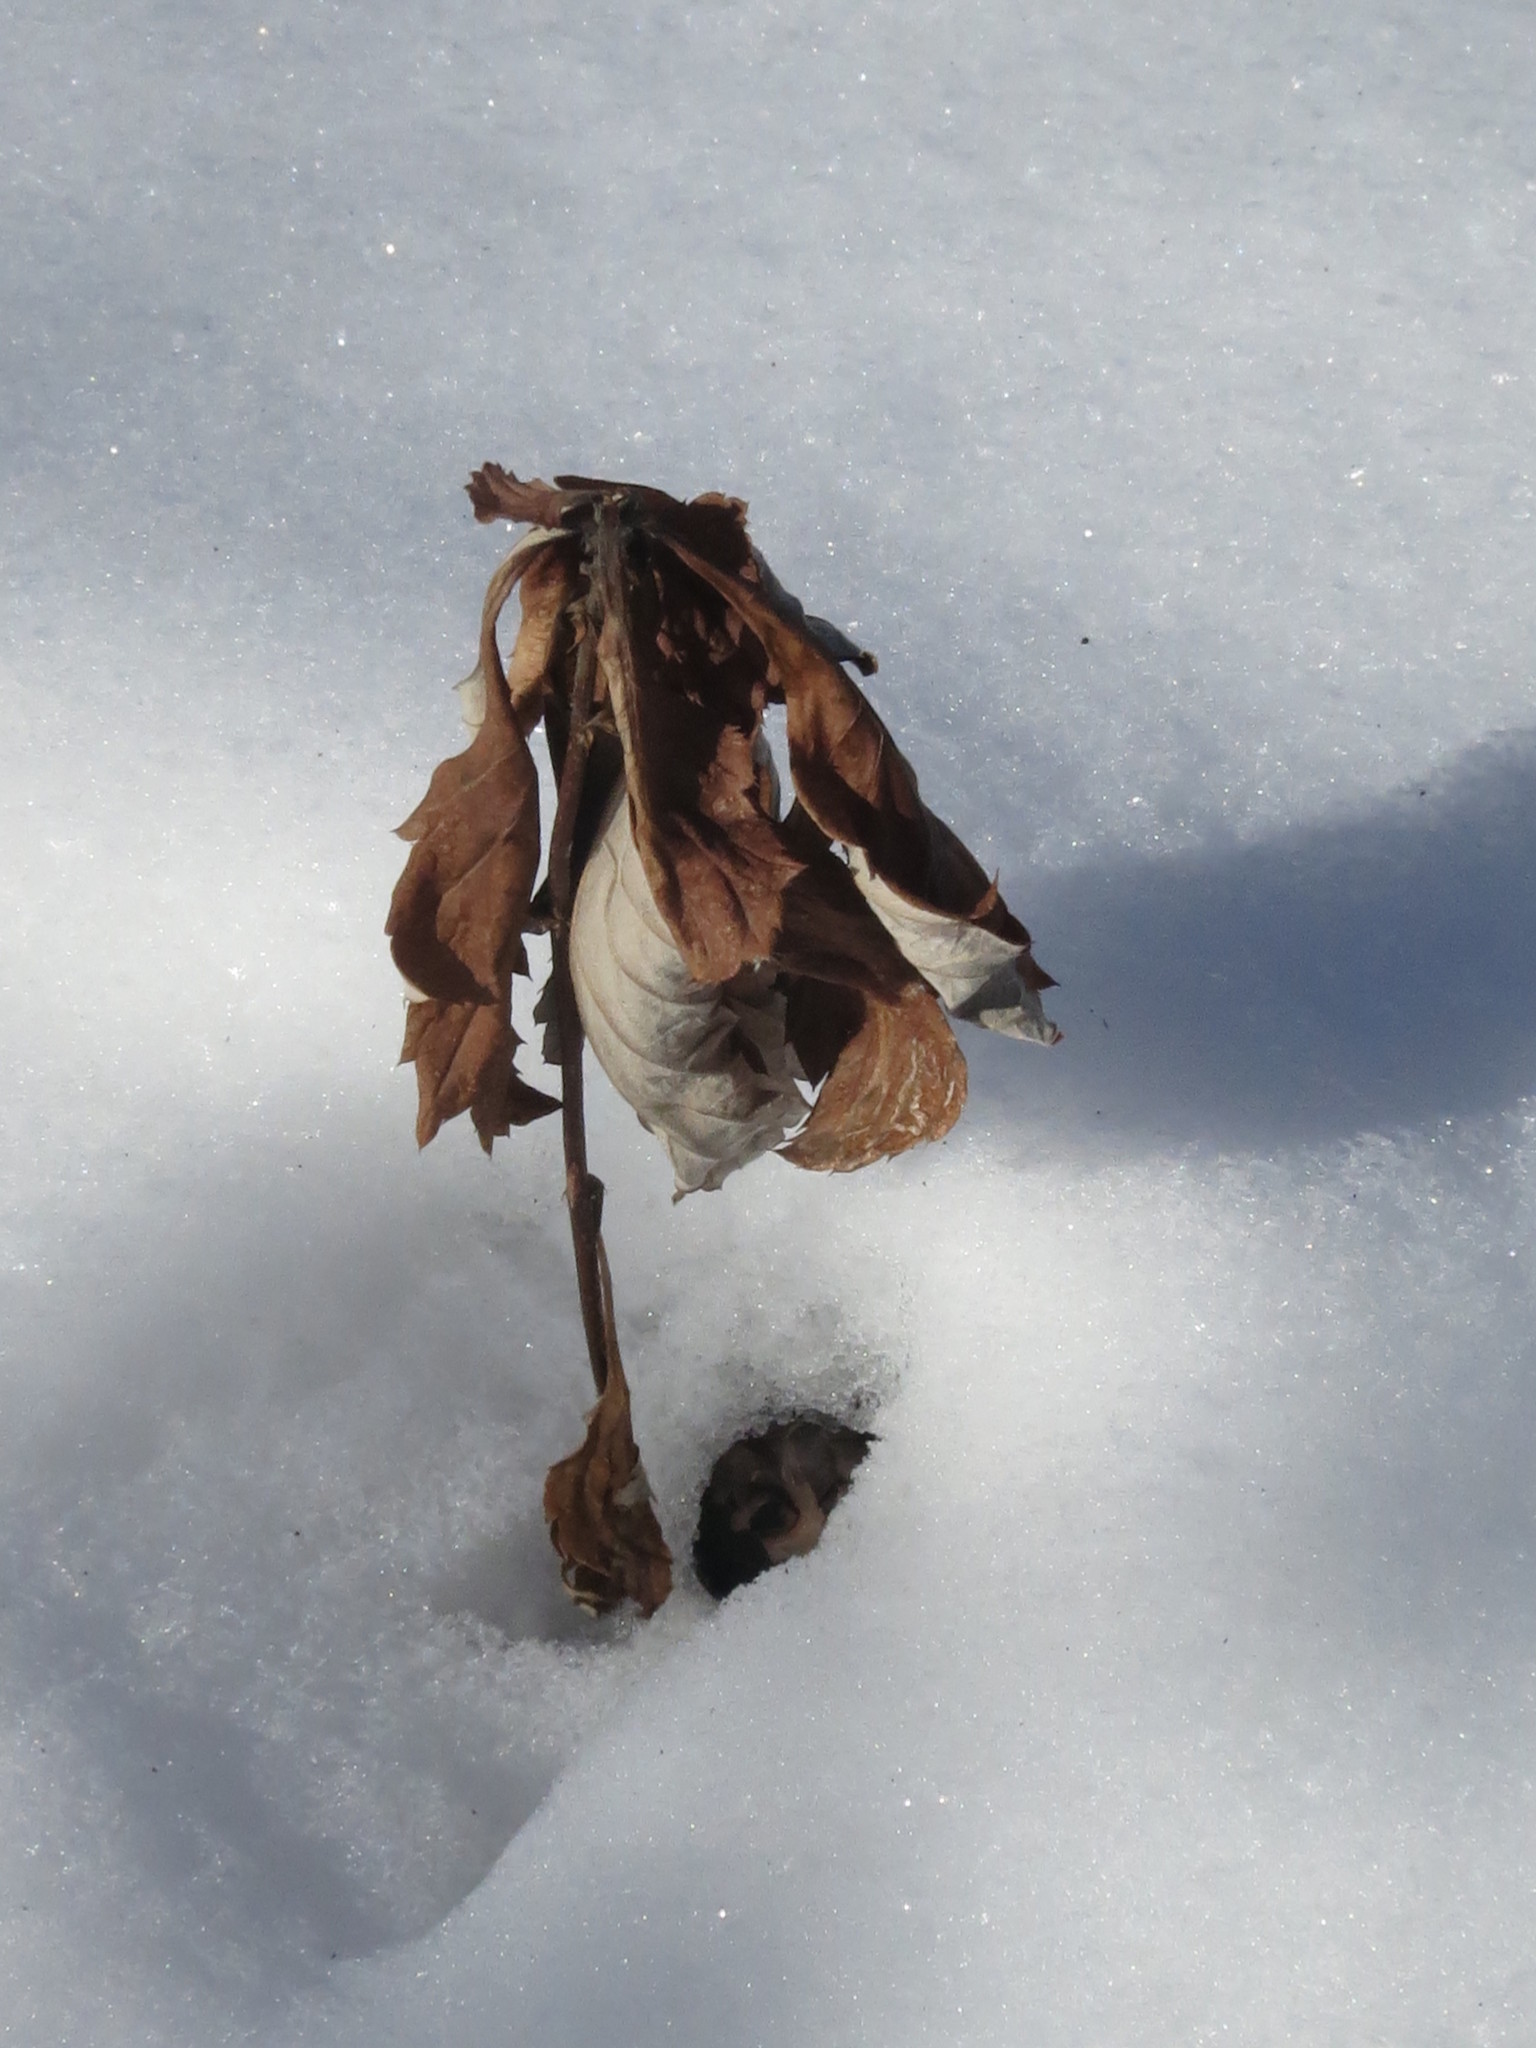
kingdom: Plantae
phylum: Tracheophyta
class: Magnoliopsida
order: Asterales
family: Asteraceae
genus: Artemisia
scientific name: Artemisia stolonifera
